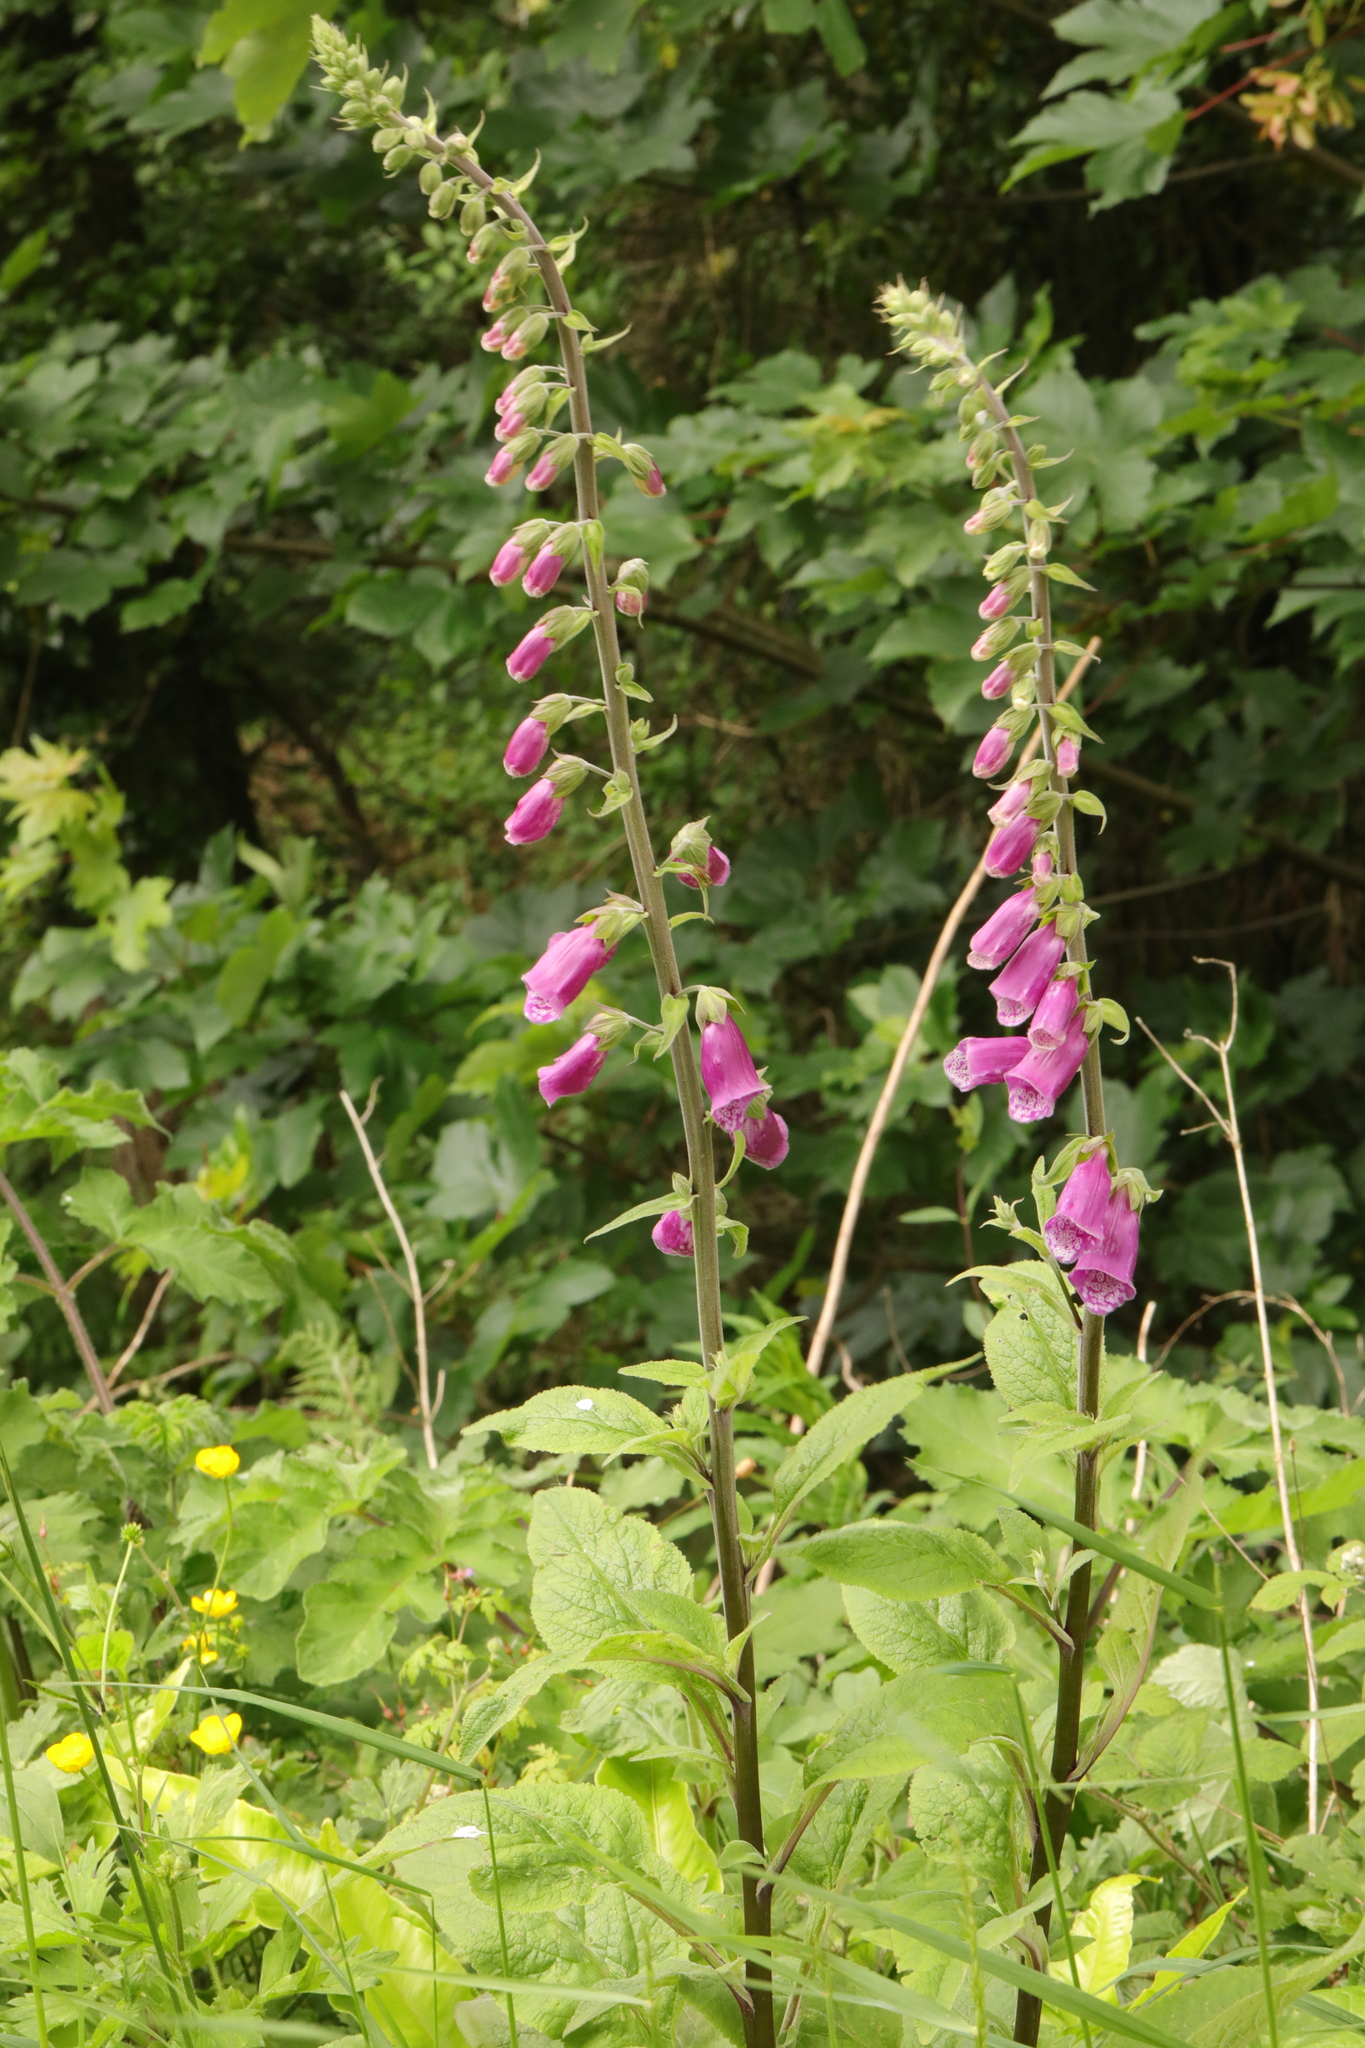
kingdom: Plantae
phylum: Tracheophyta
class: Magnoliopsida
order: Lamiales
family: Plantaginaceae
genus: Digitalis
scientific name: Digitalis purpurea
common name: Foxglove
